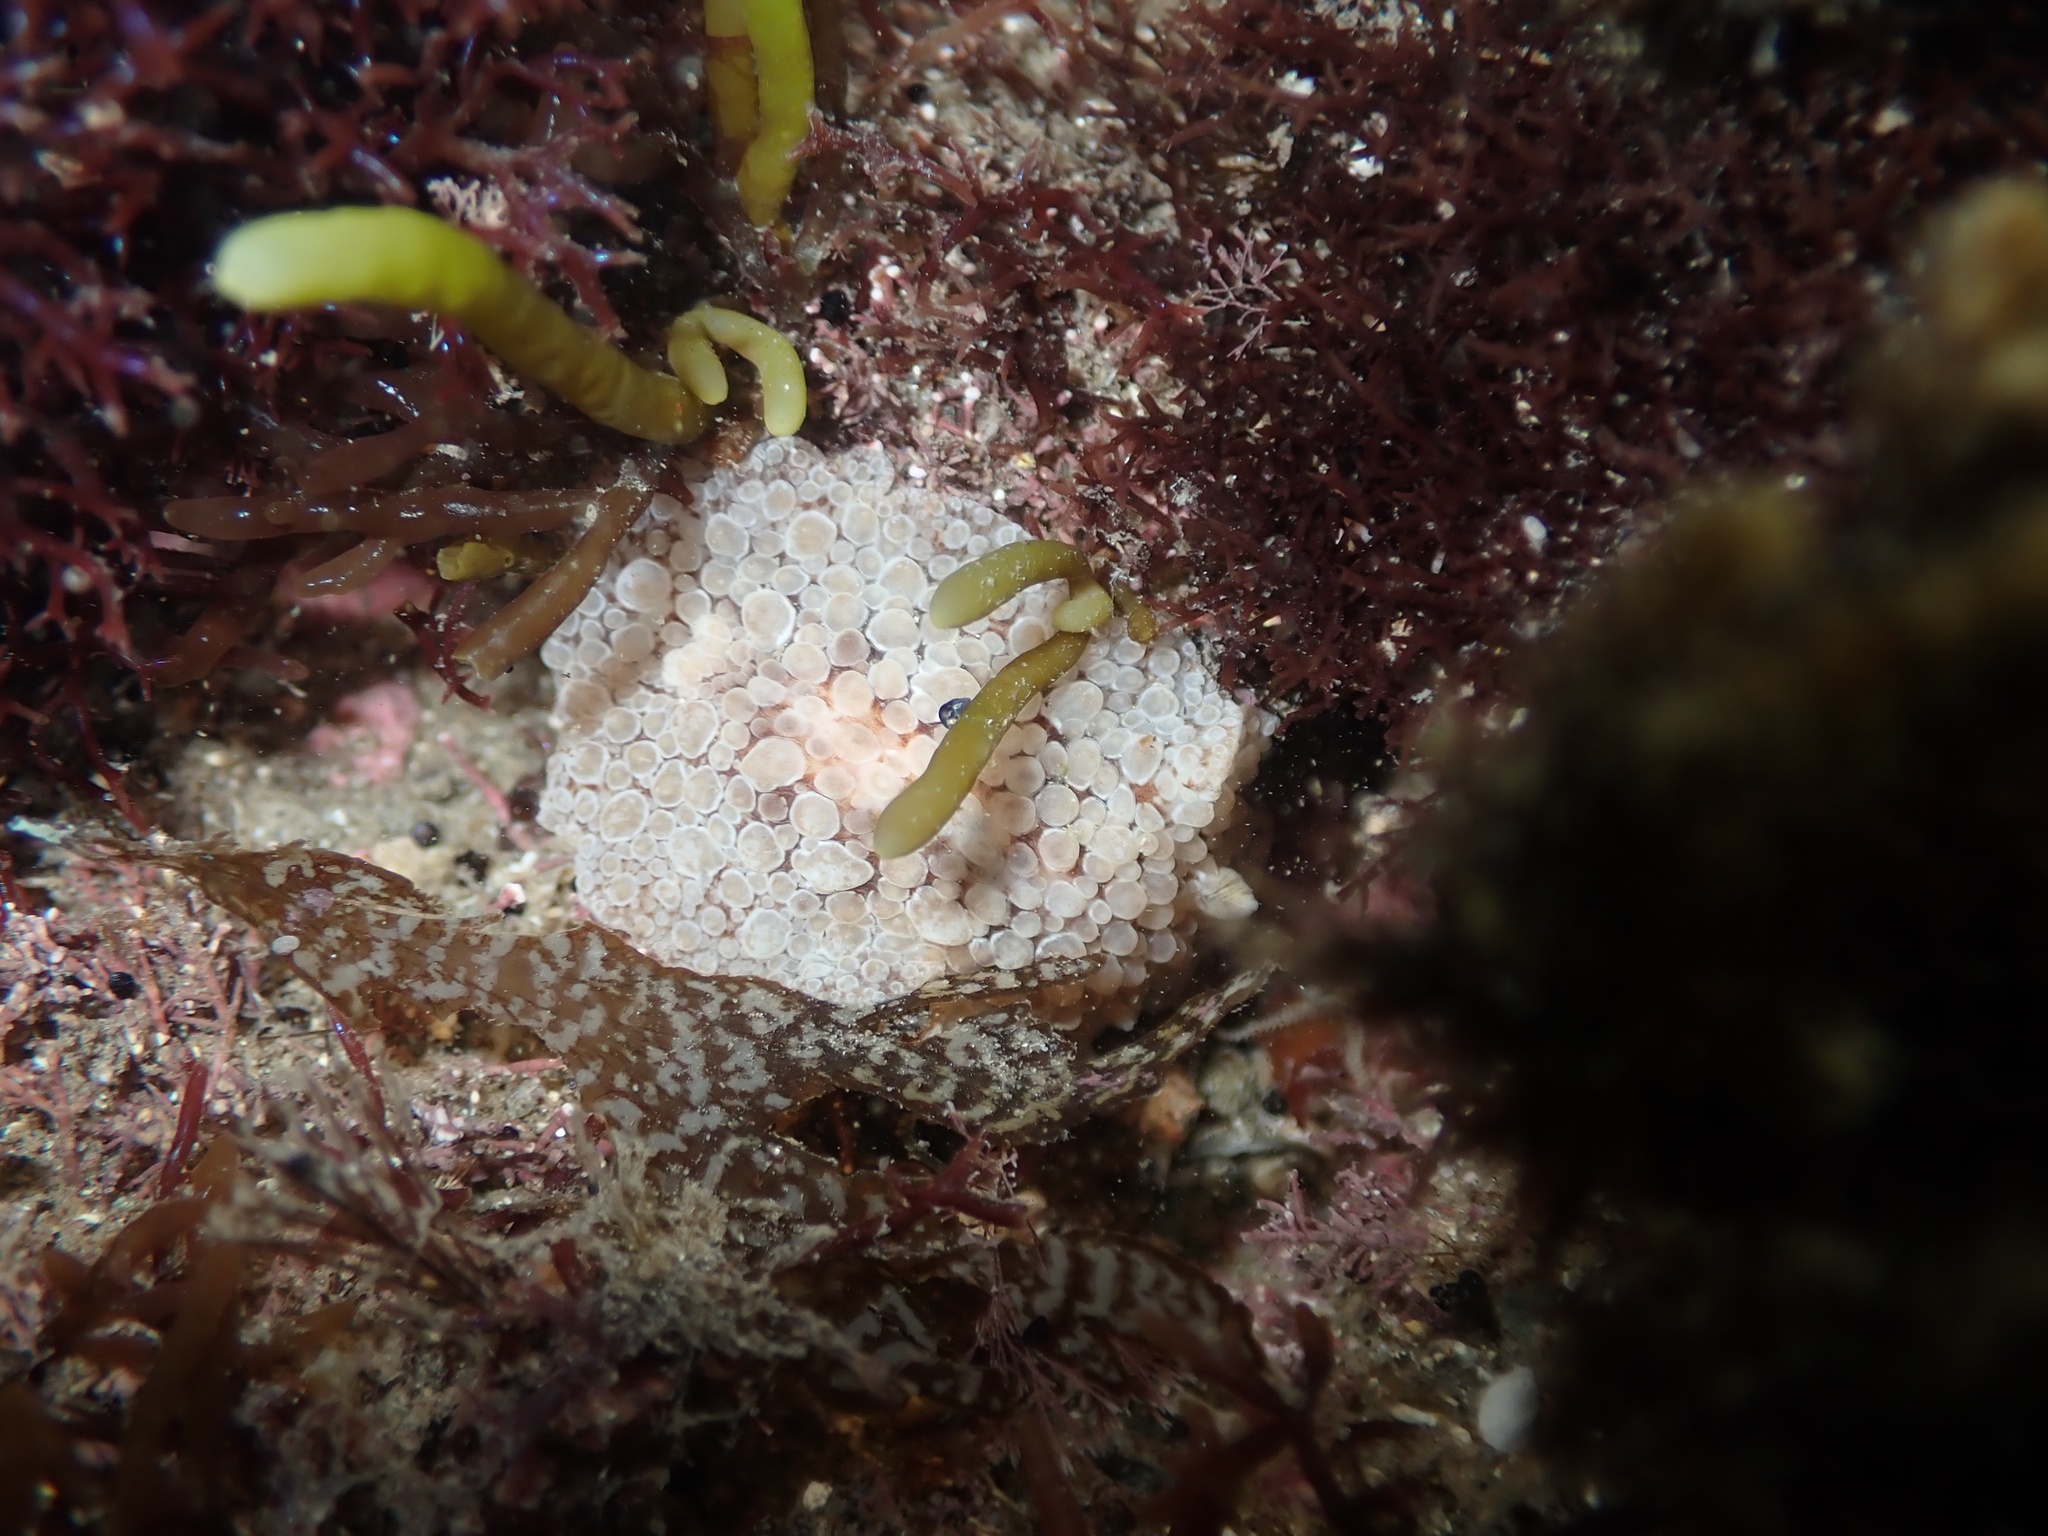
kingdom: Animalia
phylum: Mollusca
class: Gastropoda
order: Nudibranchia
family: Discodorididae
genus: Carminodoris
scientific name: Carminodoris nodulosa
